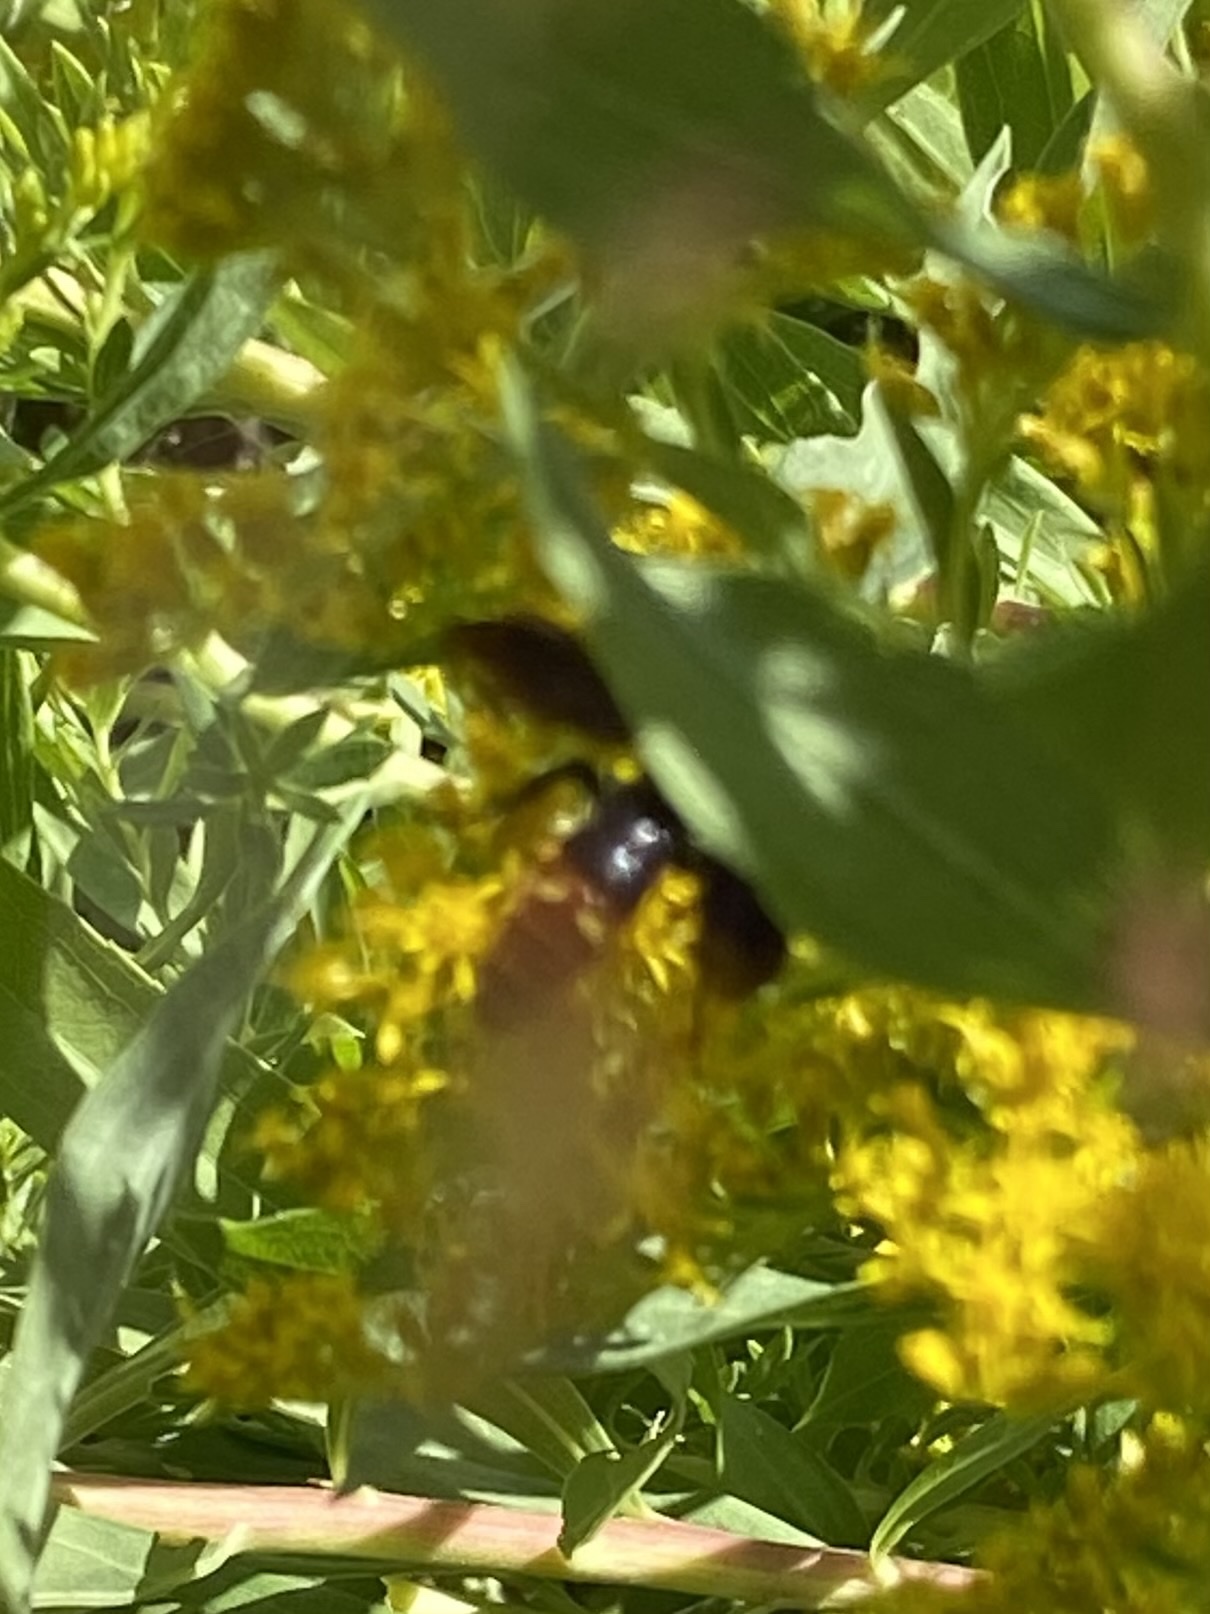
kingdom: Animalia
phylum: Arthropoda
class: Insecta
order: Hymenoptera
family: Scoliidae
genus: Scolia
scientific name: Scolia dubia
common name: Blue-winged scoliid wasp
